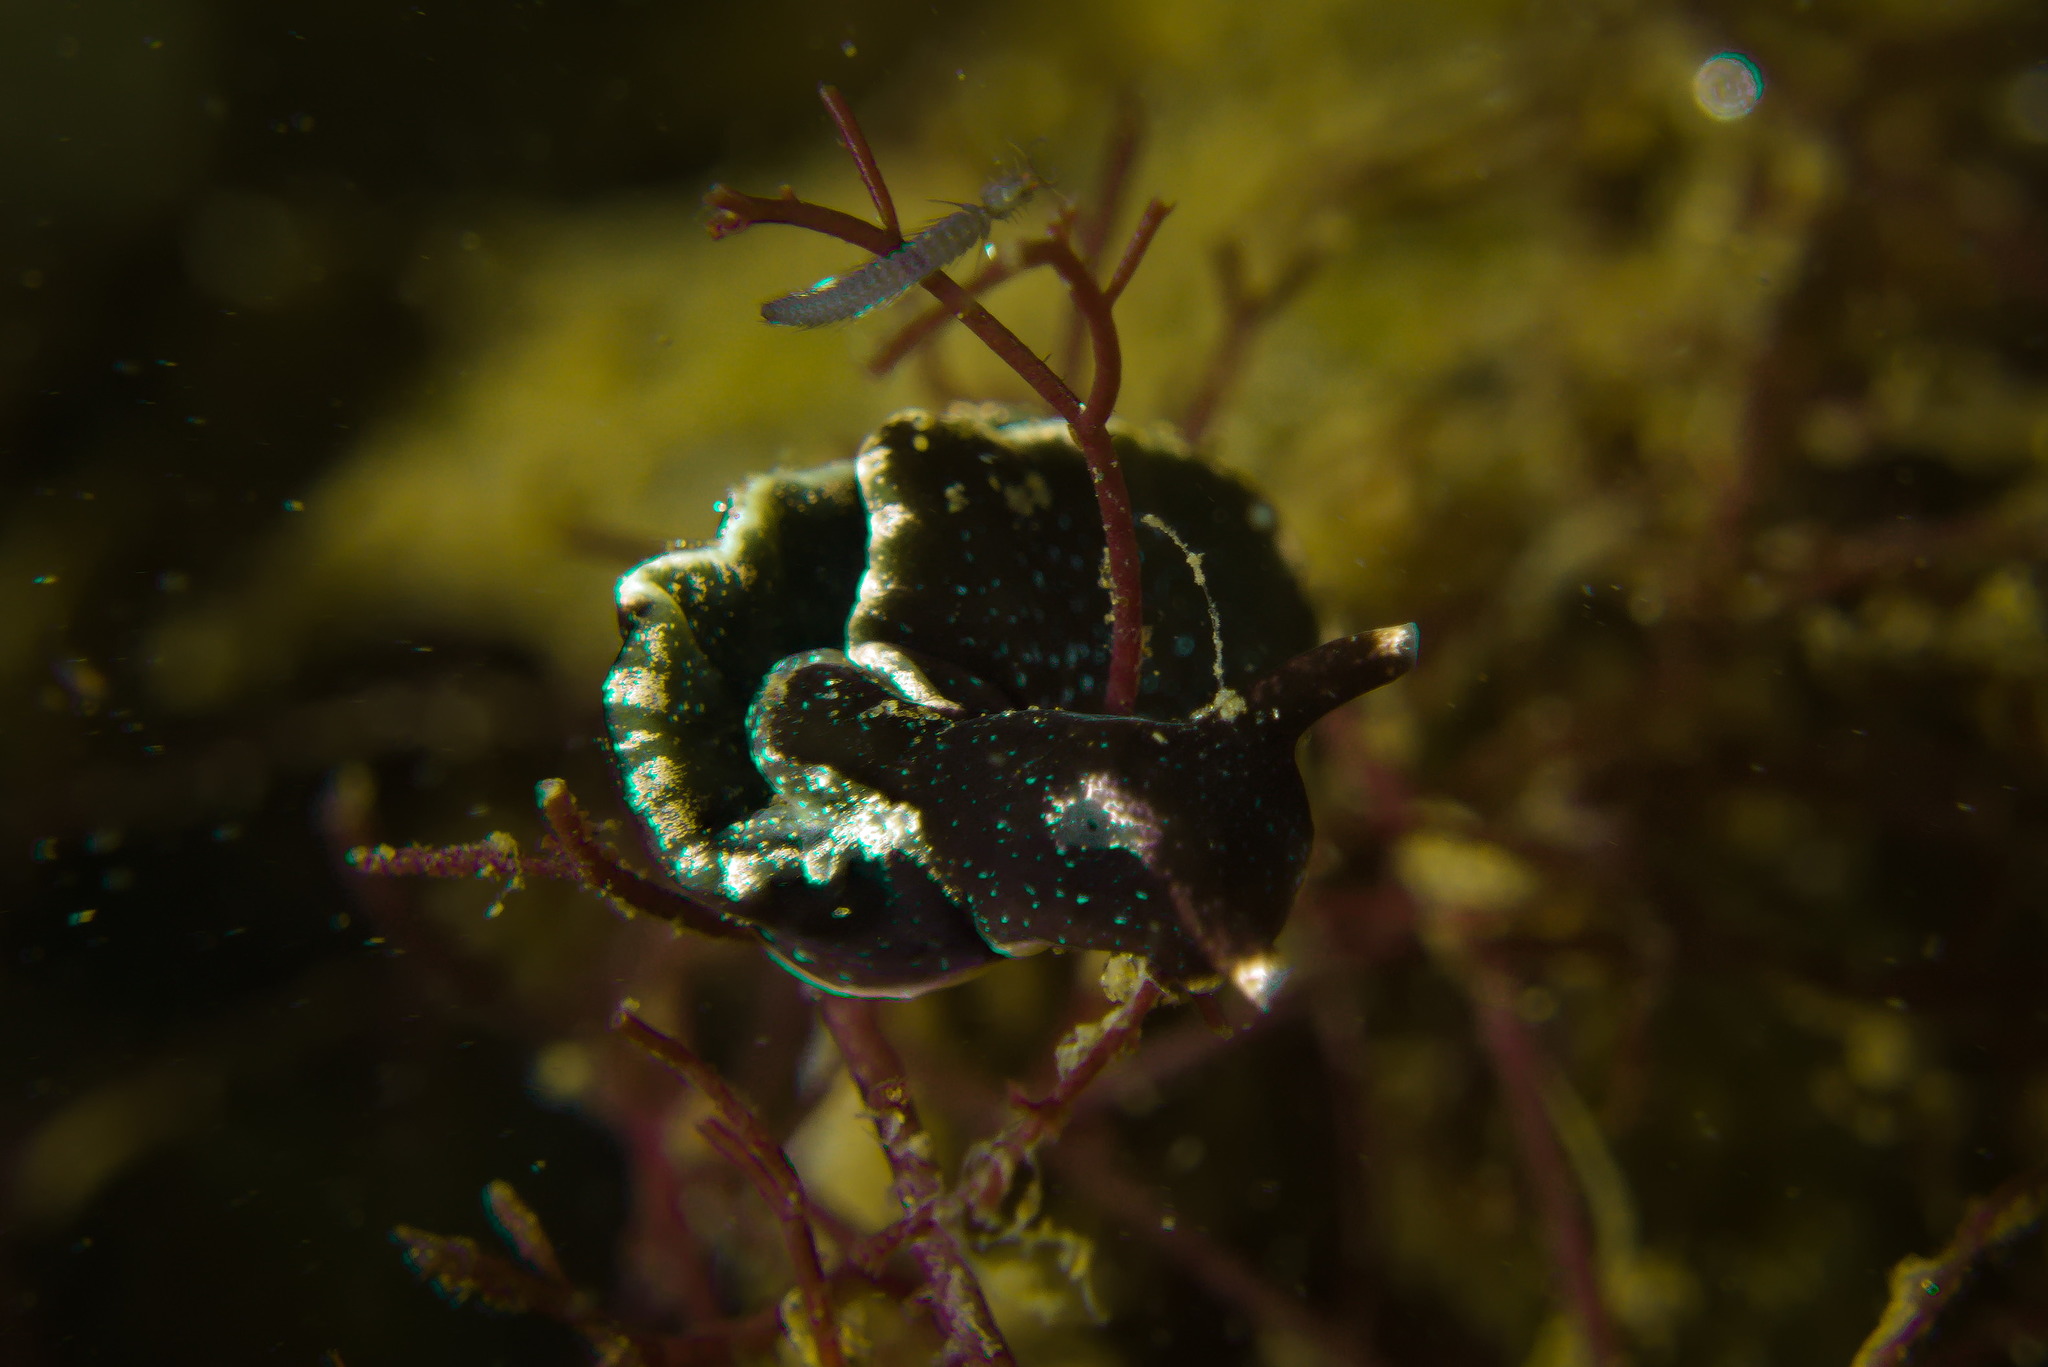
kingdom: Animalia
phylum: Mollusca
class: Gastropoda
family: Plakobranchidae
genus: Elysia
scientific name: Elysia viridis
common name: Green elysia
